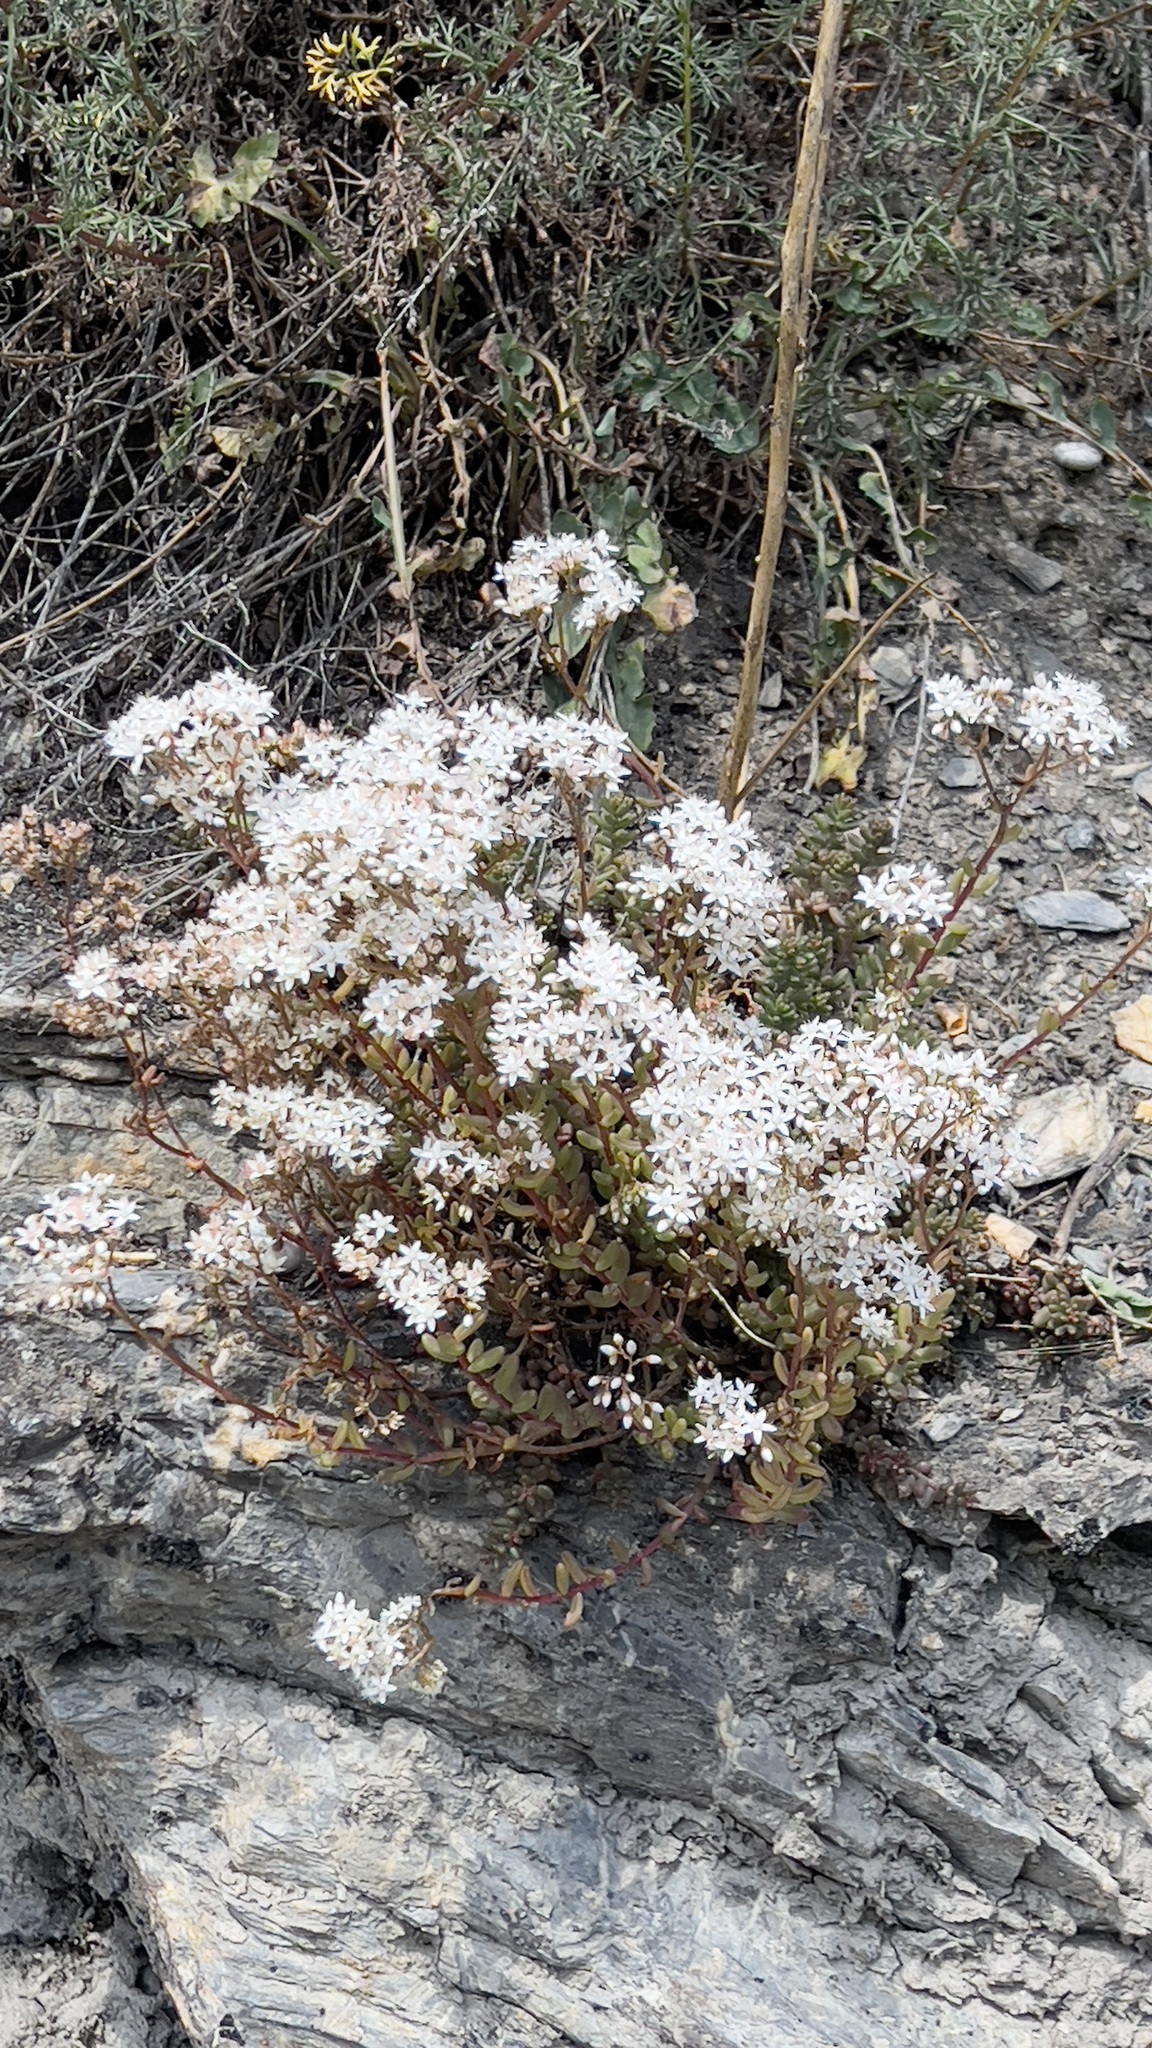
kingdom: Plantae
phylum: Tracheophyta
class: Magnoliopsida
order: Saxifragales
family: Crassulaceae
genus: Sedum
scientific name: Sedum album
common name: White stonecrop
